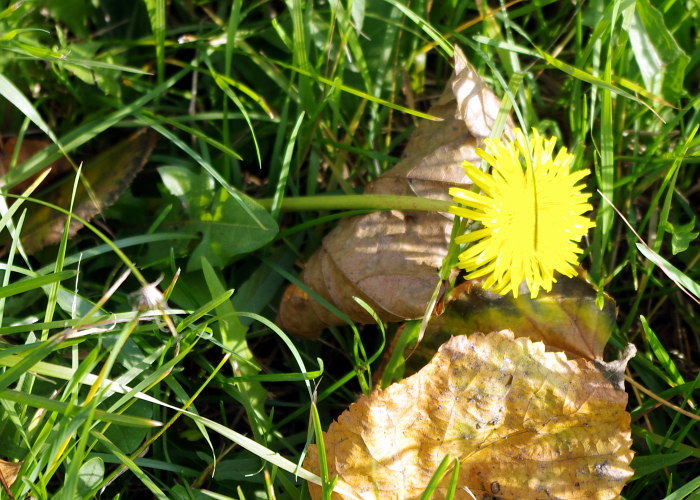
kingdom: Plantae
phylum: Tracheophyta
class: Magnoliopsida
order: Asterales
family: Asteraceae
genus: Taraxacum
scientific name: Taraxacum officinale
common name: Common dandelion
